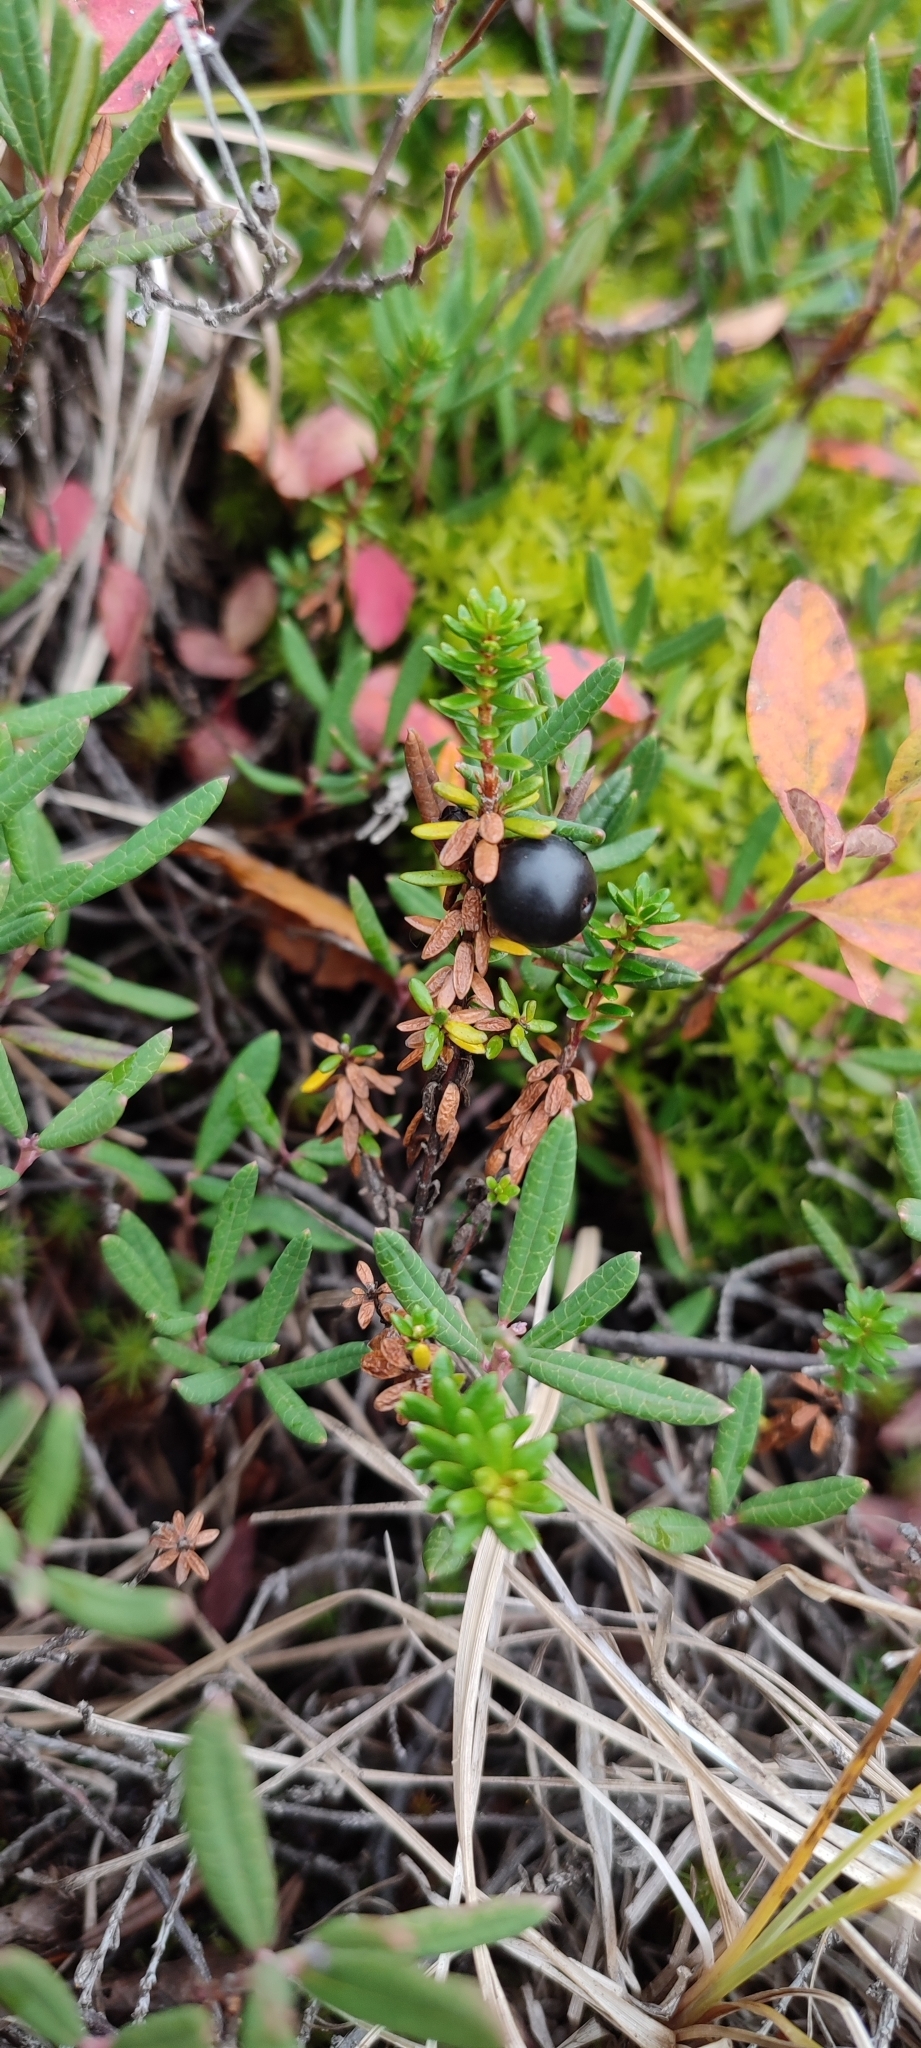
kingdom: Plantae
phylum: Tracheophyta
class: Magnoliopsida
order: Ericales
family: Ericaceae
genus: Empetrum
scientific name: Empetrum nigrum
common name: Black crowberry
